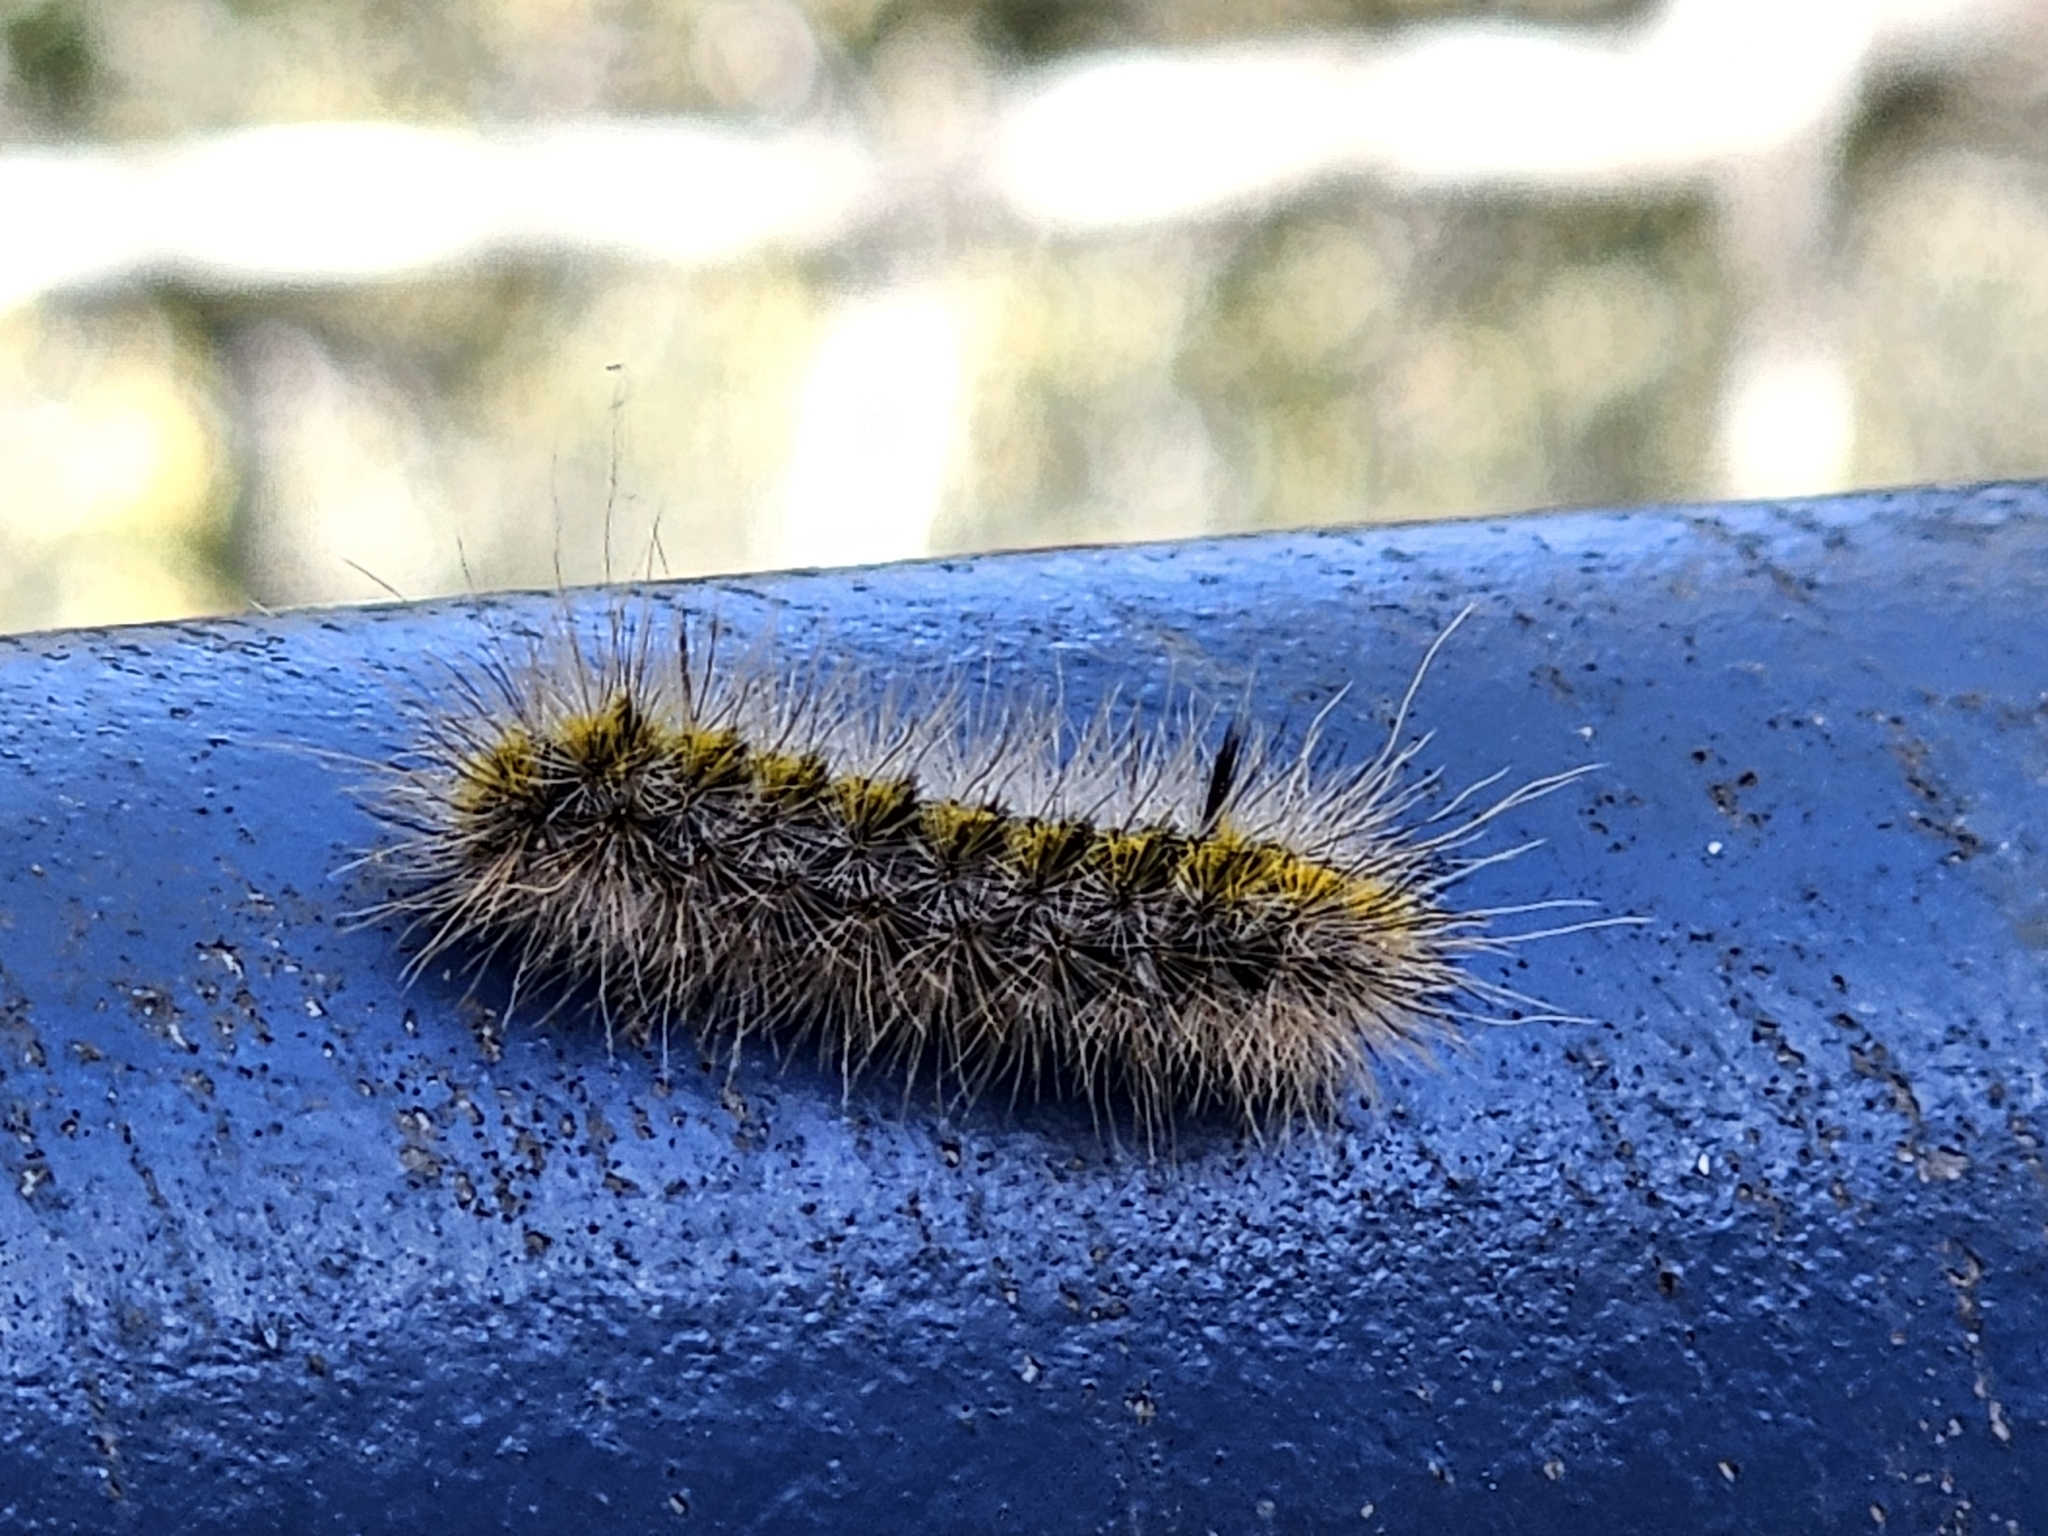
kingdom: Animalia
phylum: Arthropoda
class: Insecta
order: Lepidoptera
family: Erebidae
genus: Lophocampa
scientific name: Lophocampa sobrina
